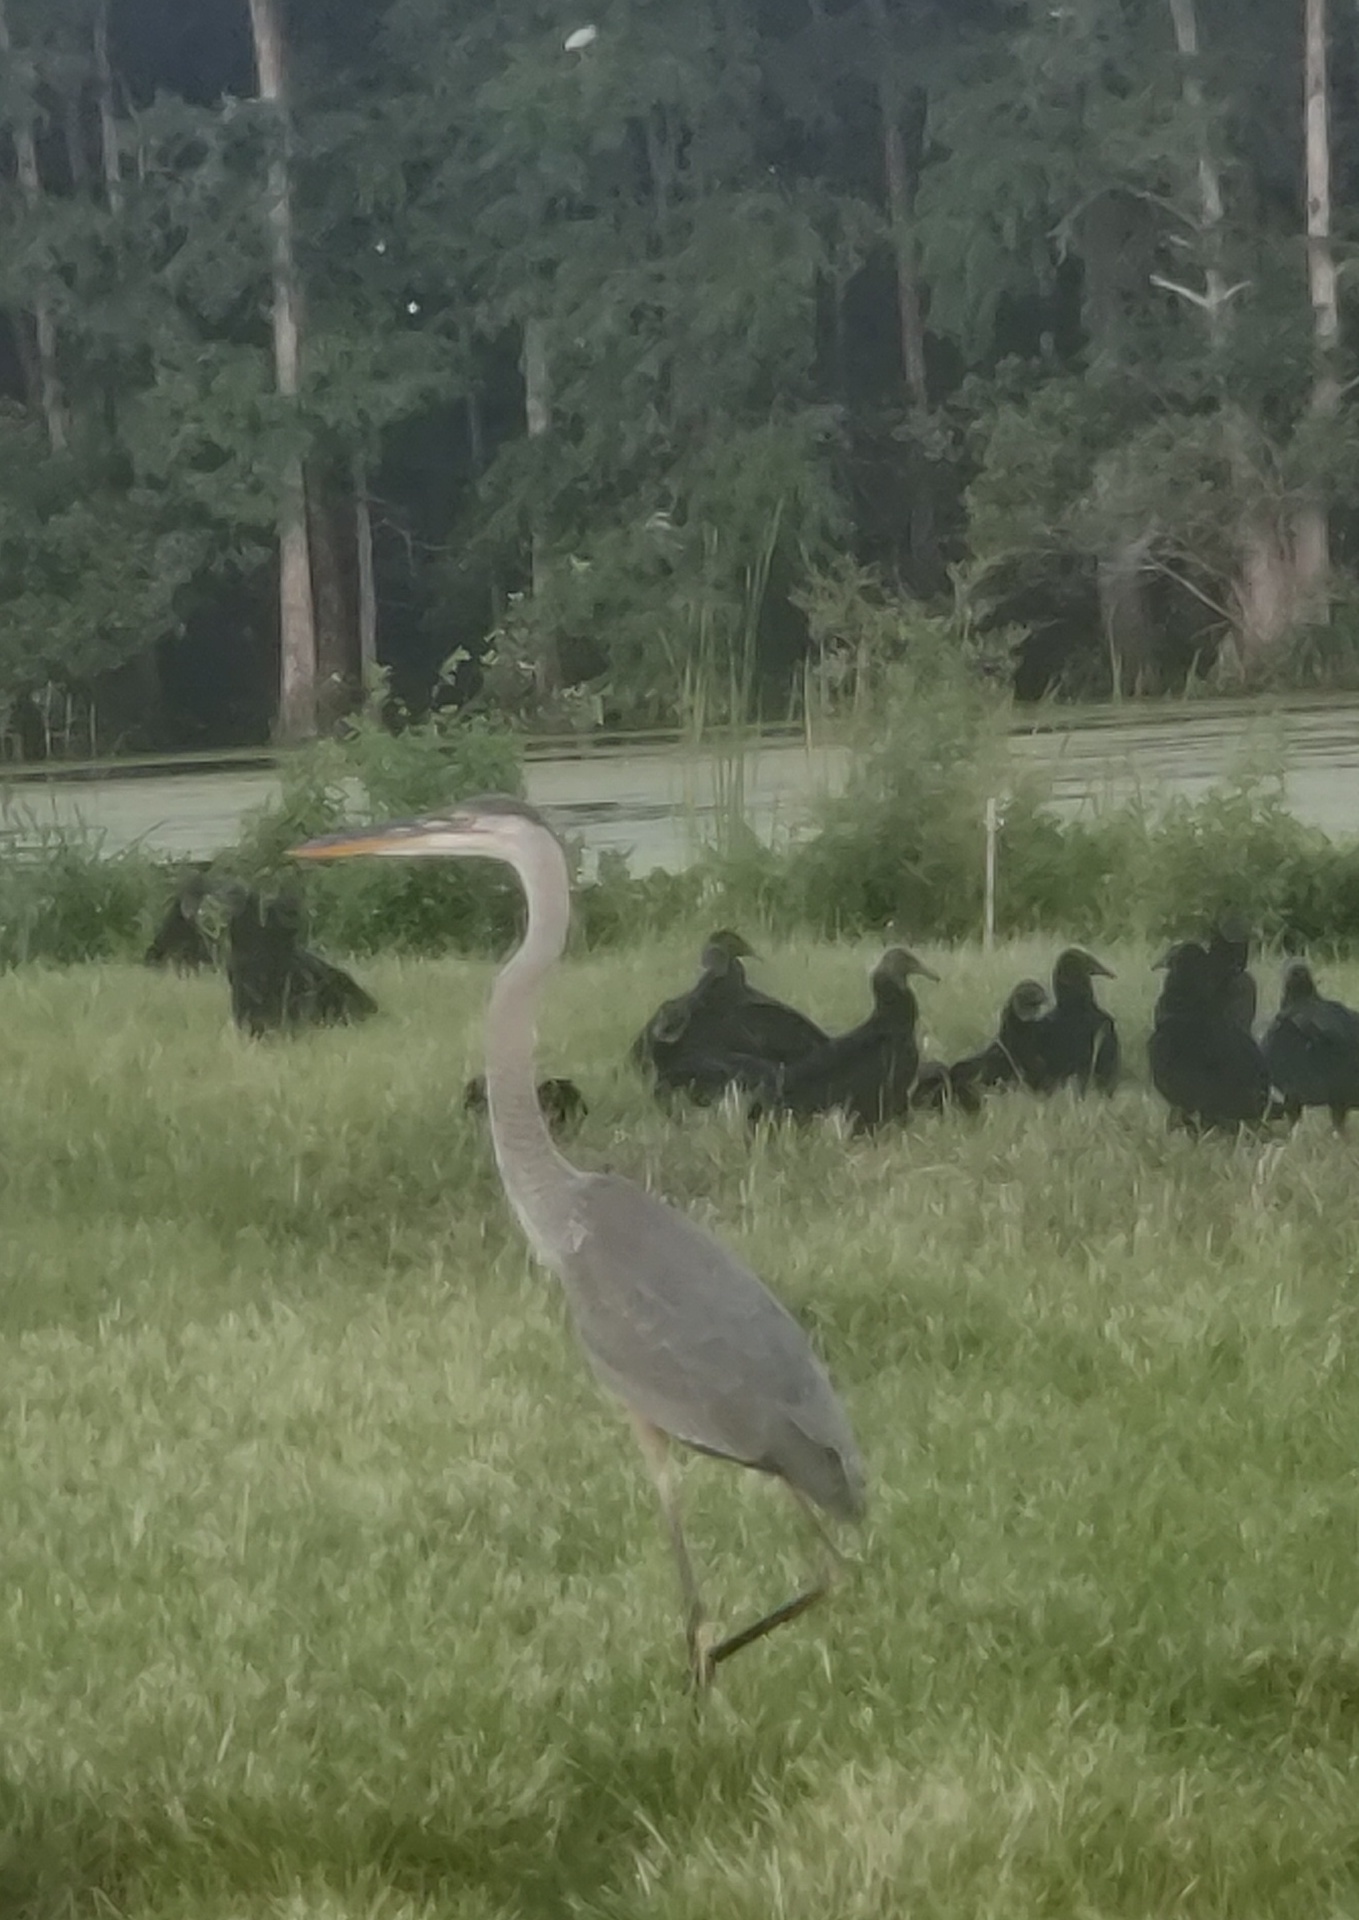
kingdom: Animalia
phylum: Chordata
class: Aves
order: Pelecaniformes
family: Ardeidae
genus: Ardea
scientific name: Ardea herodias
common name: Great blue heron
